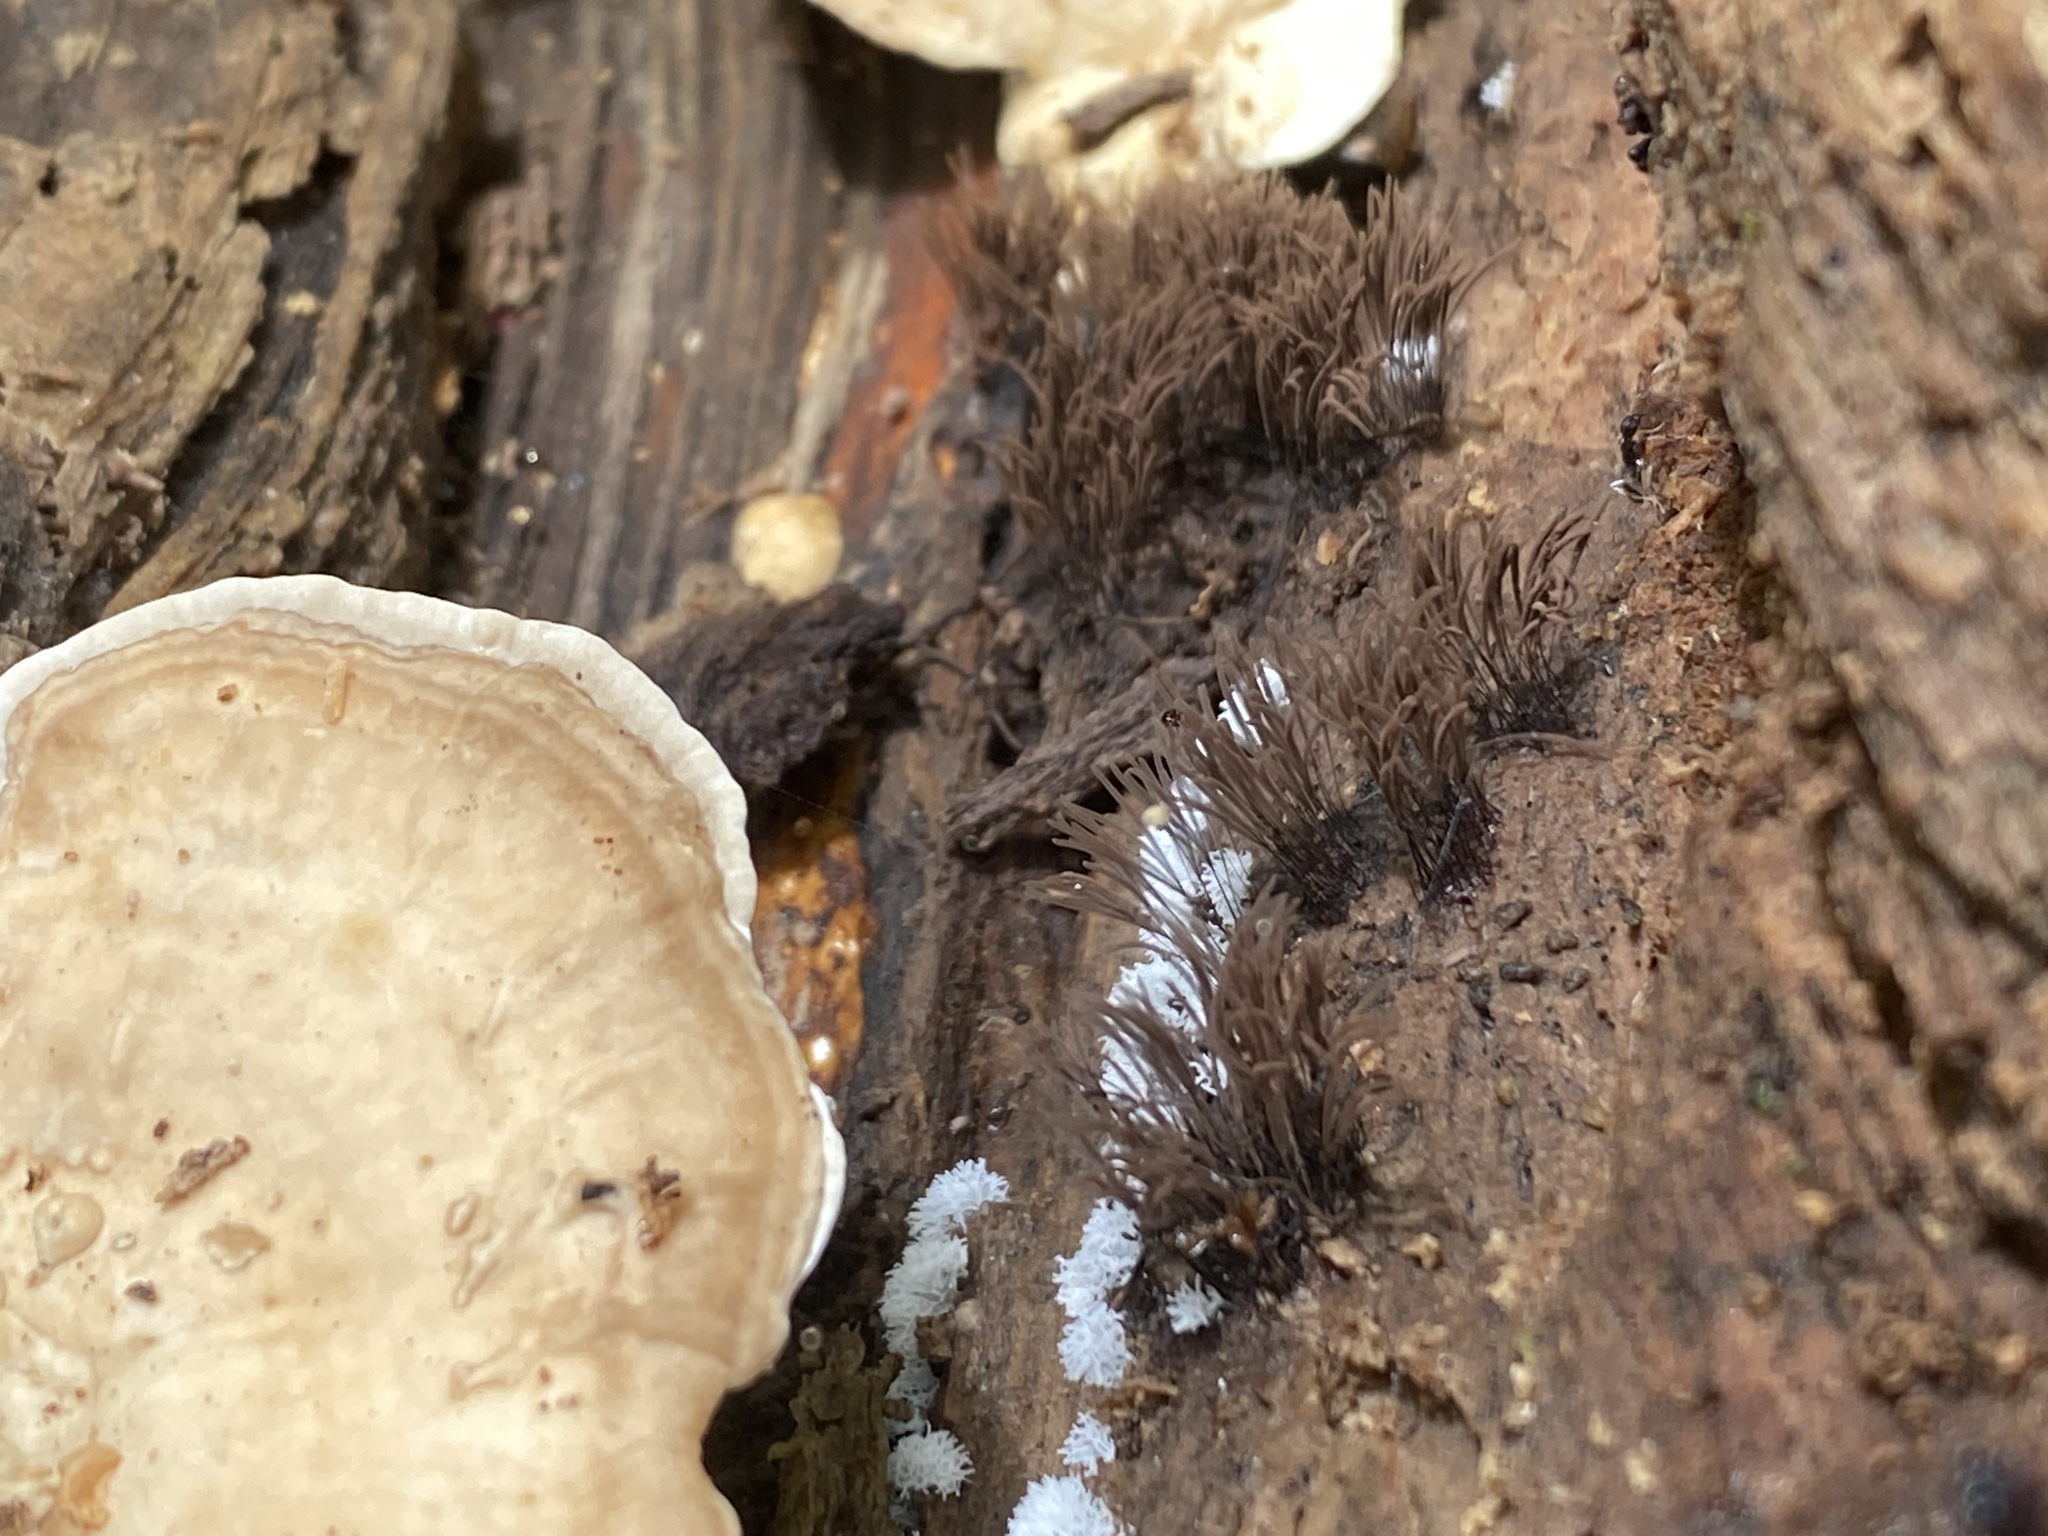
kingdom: Protozoa
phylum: Mycetozoa
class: Myxomycetes
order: Stemonitidales
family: Stemonitidaceae
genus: Stemonitis
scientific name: Stemonitis splendens
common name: Chocolate tube slime
